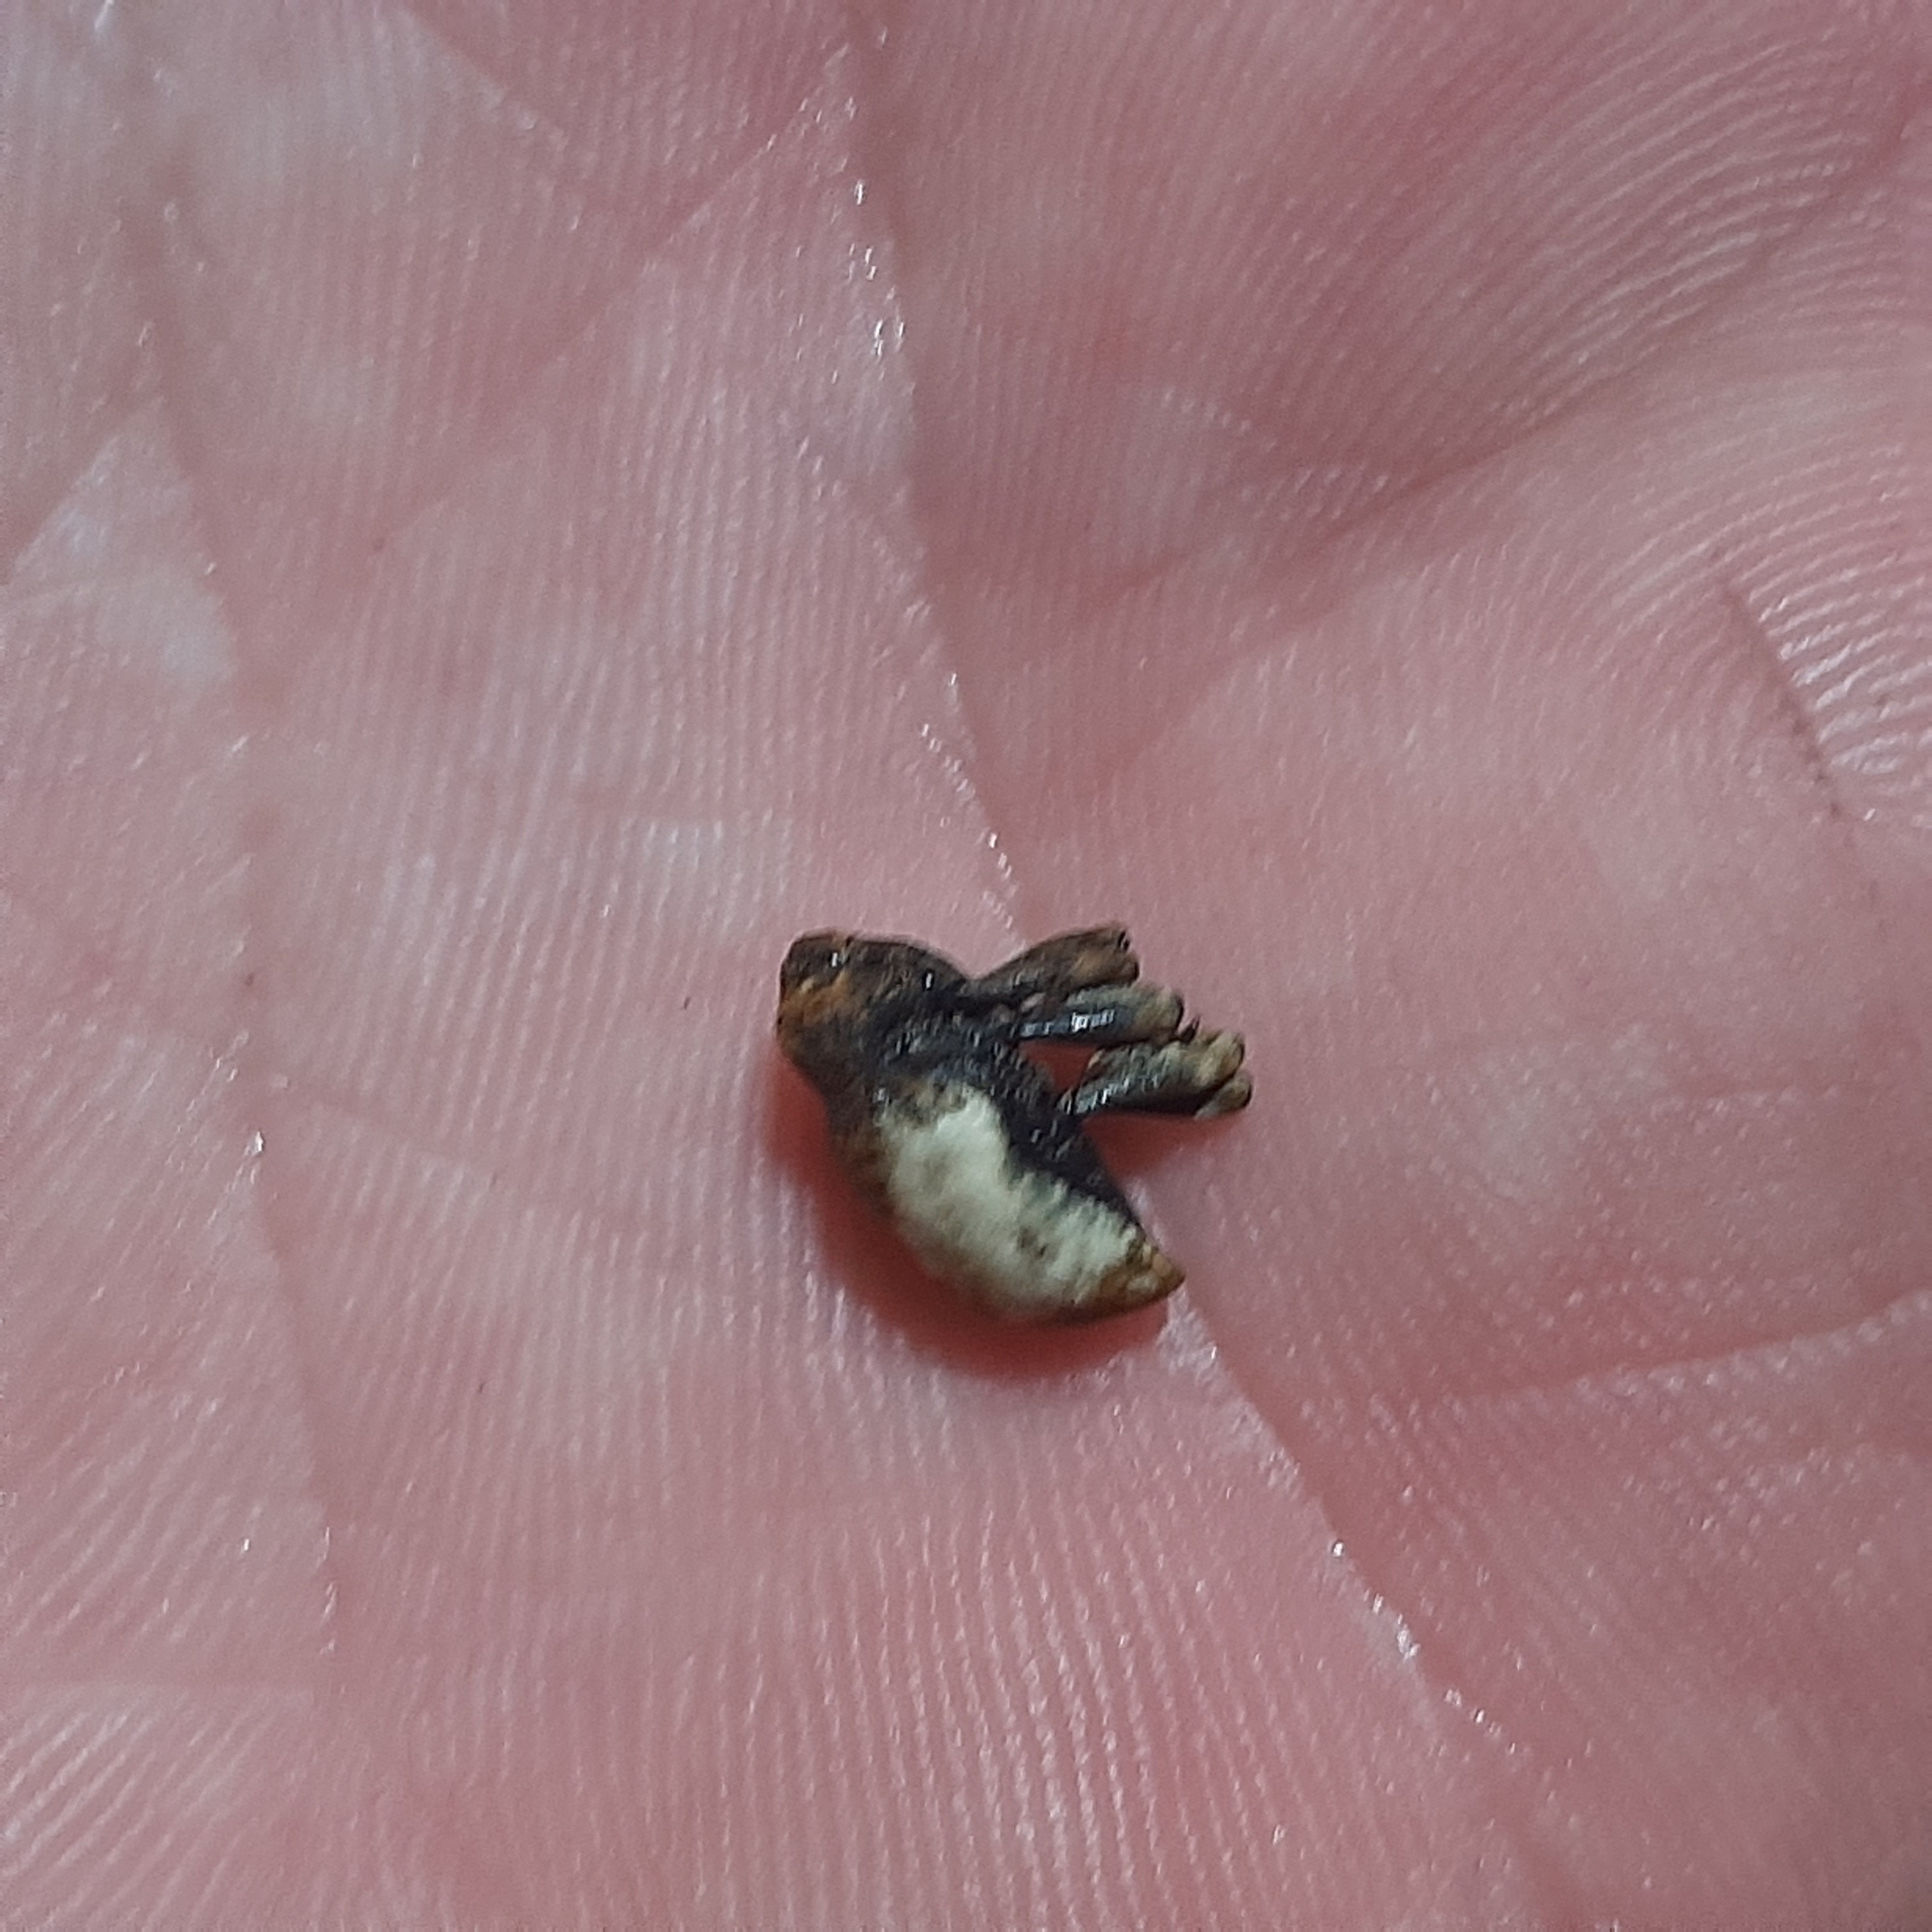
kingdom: Animalia
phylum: Arthropoda
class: Insecta
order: Coleoptera
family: Curculionidae
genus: Cryptorrhynchus
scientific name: Cryptorrhynchus melastomae
